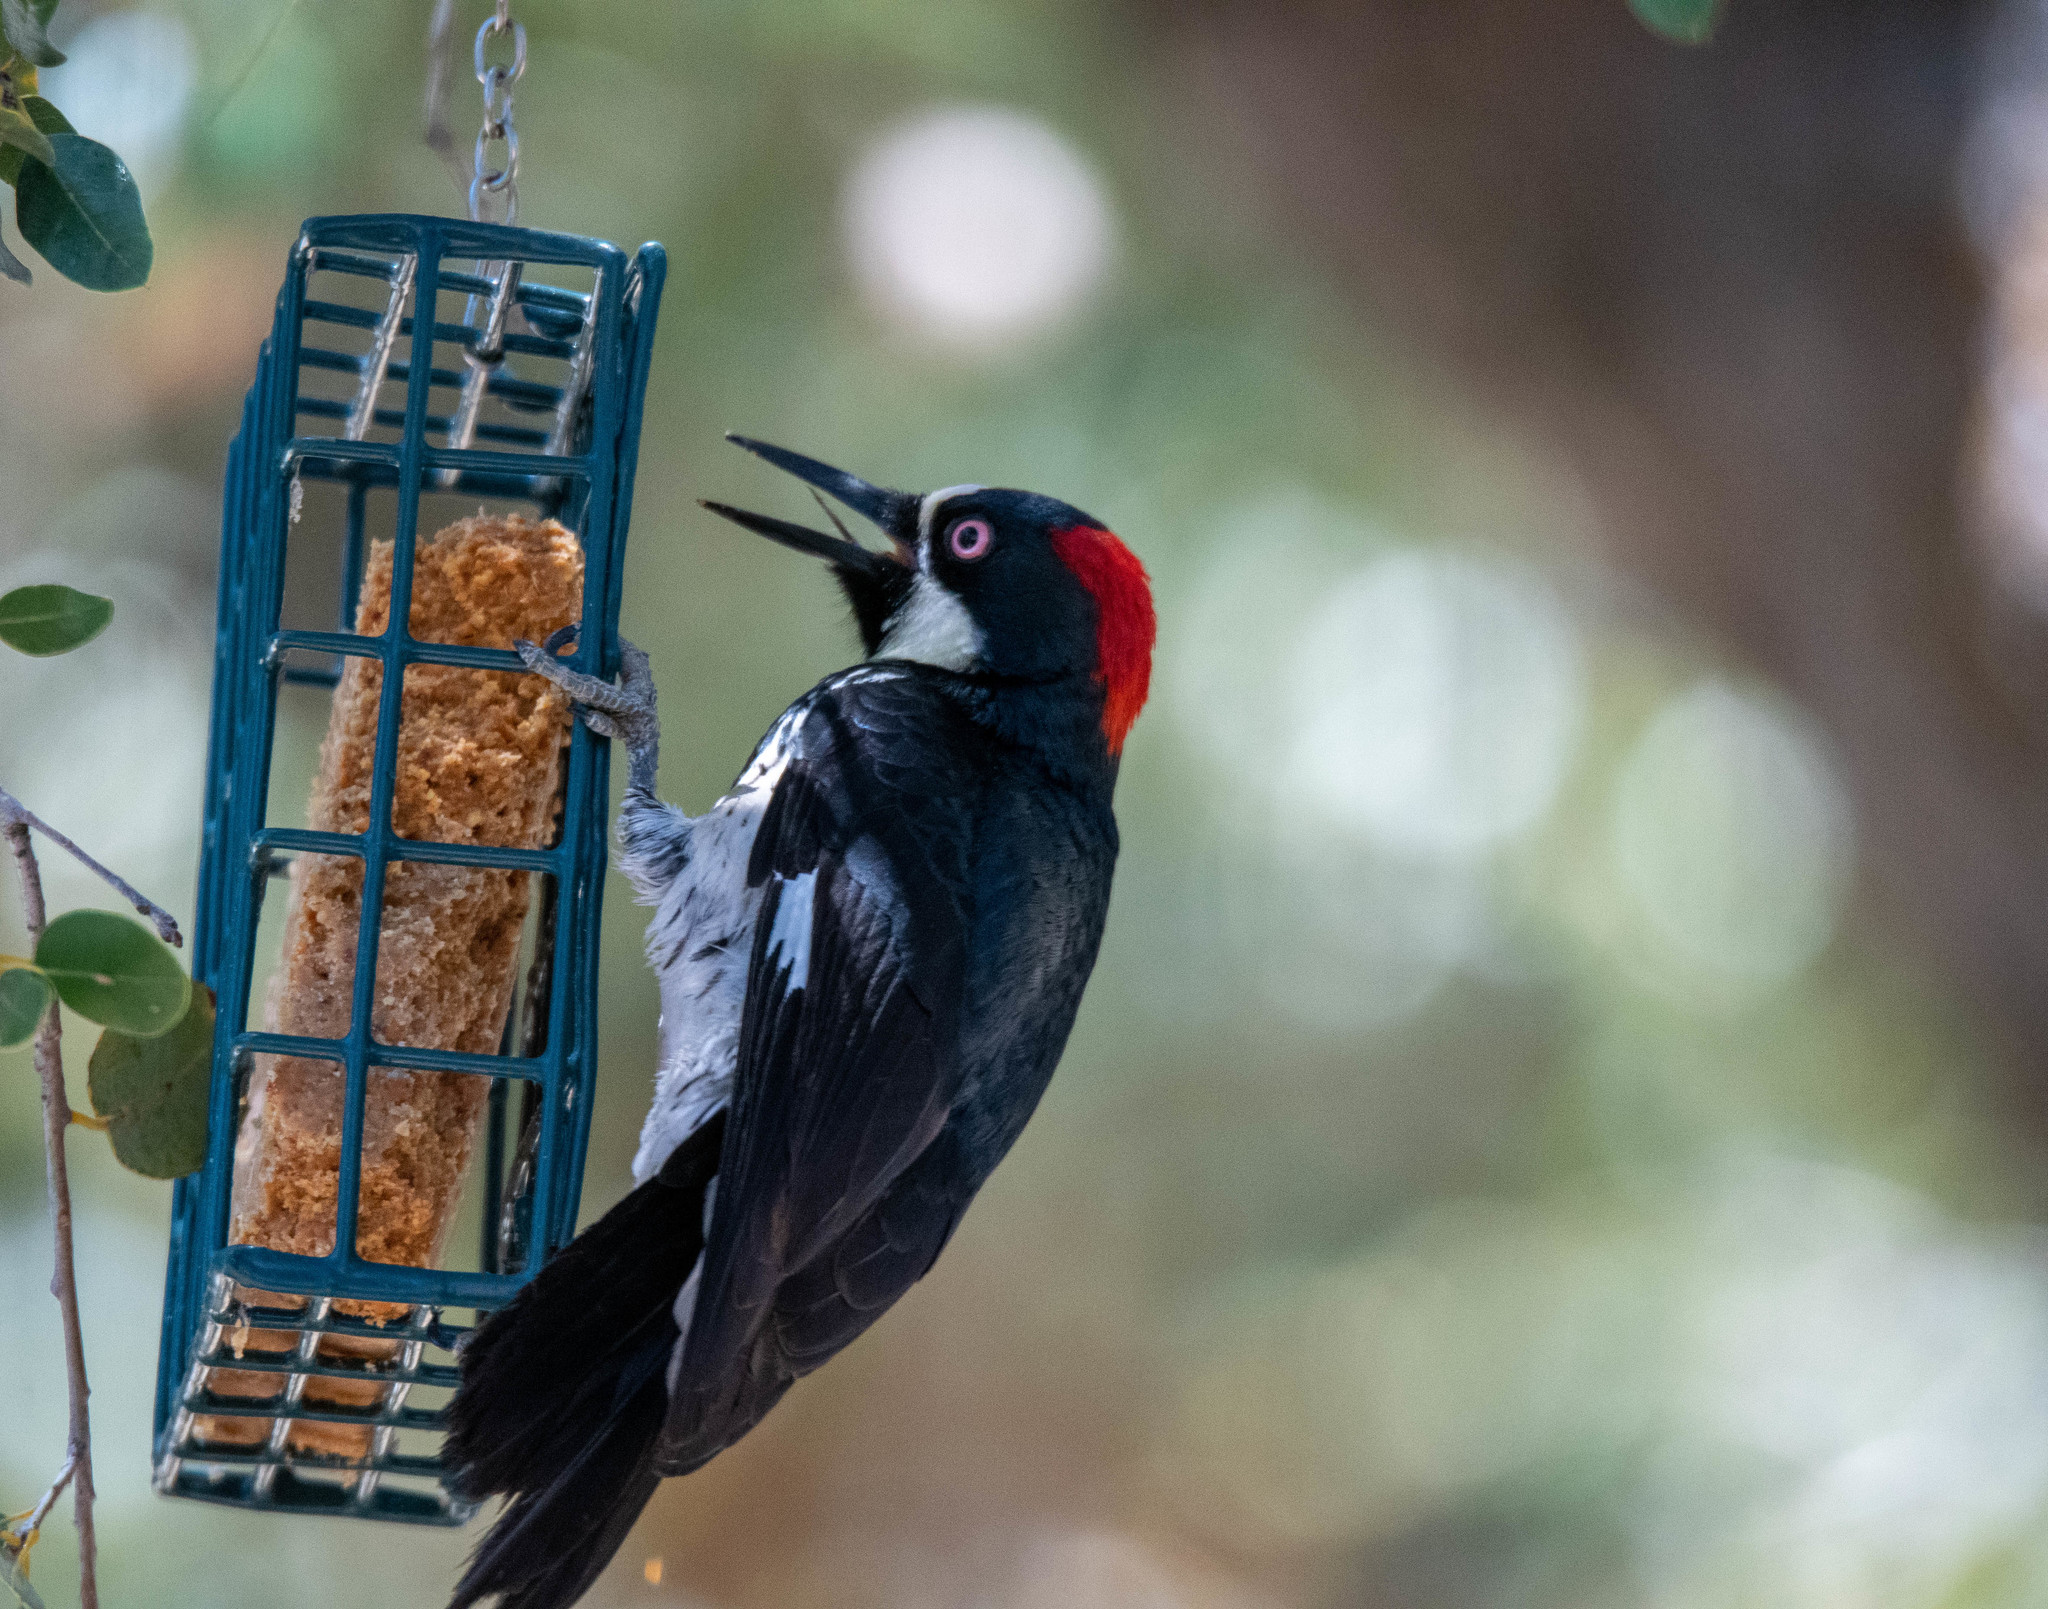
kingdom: Animalia
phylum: Chordata
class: Aves
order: Piciformes
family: Picidae
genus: Melanerpes
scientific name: Melanerpes formicivorus
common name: Acorn woodpecker
